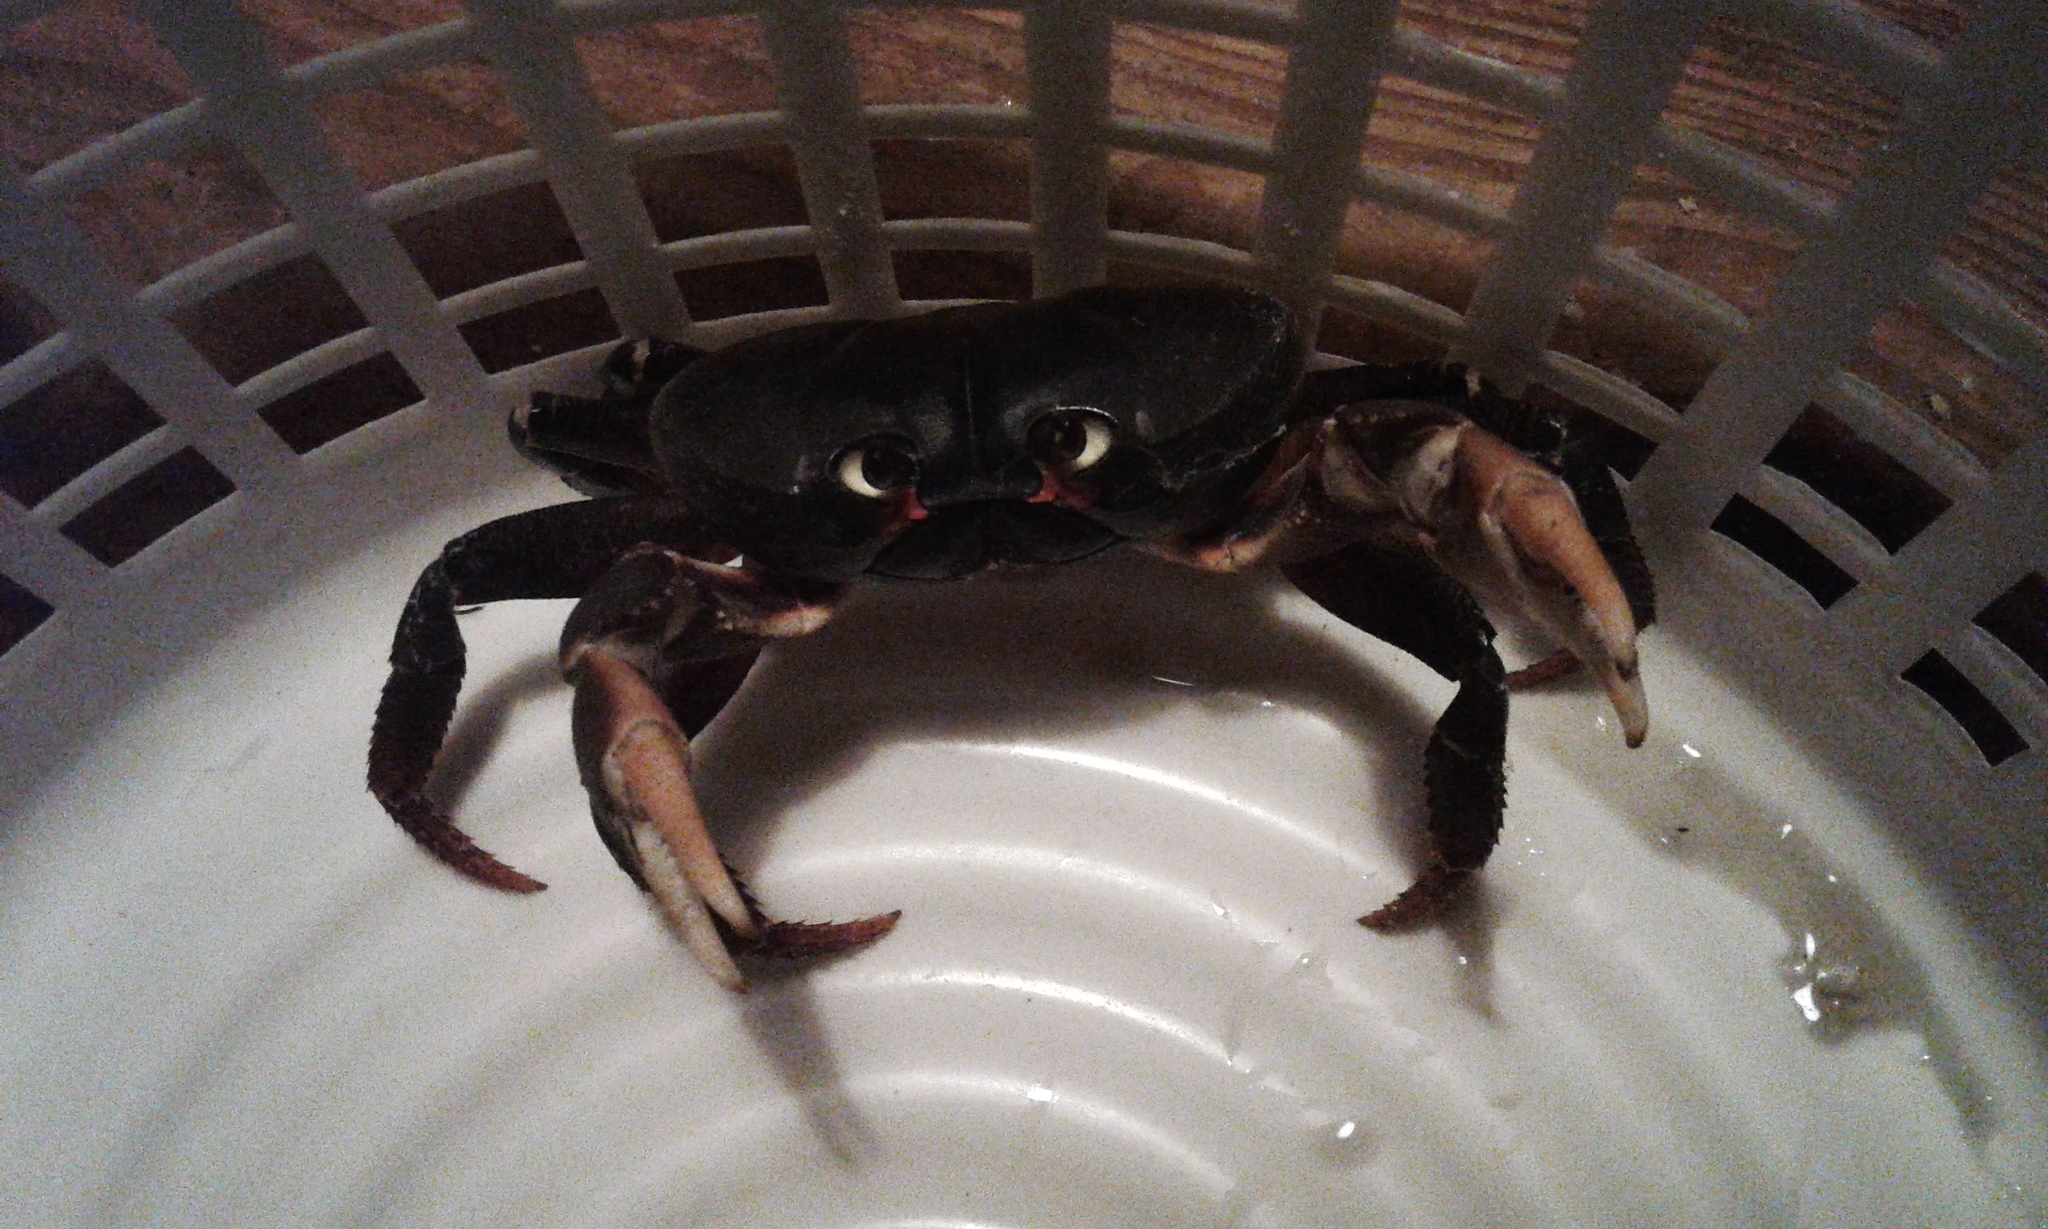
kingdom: Animalia
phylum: Arthropoda
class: Malacostraca
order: Decapoda
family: Gecarcinidae
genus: Gecarcinus
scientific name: Gecarcinus ruricola
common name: Black land crab
